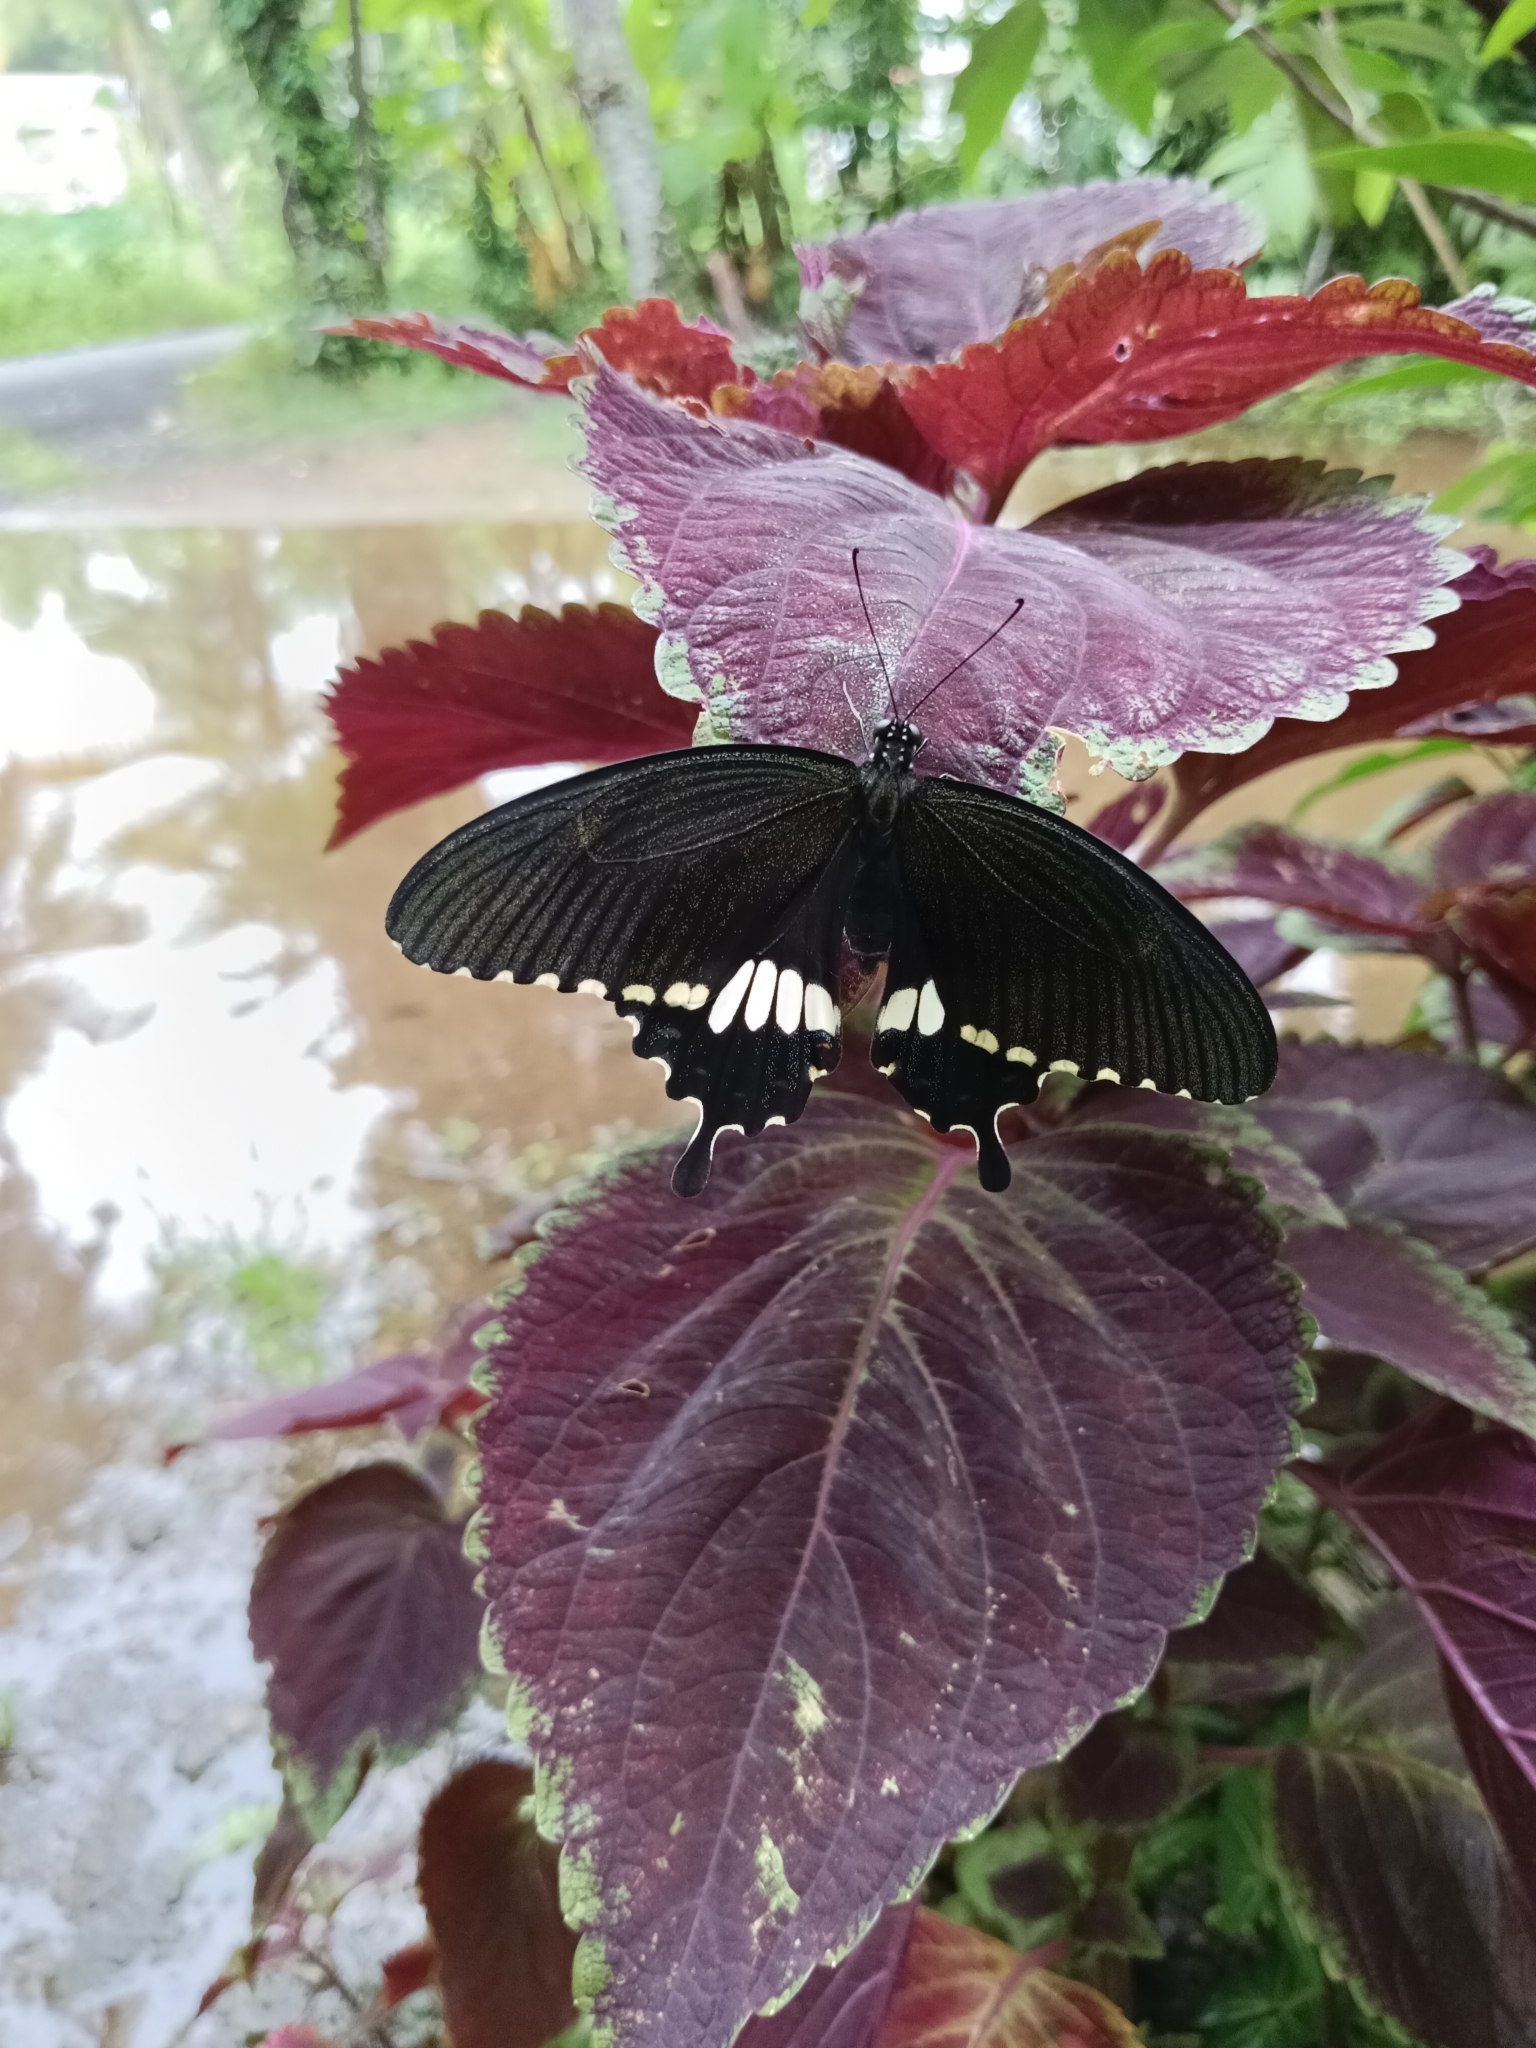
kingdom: Animalia
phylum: Arthropoda
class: Insecta
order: Lepidoptera
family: Papilionidae
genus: Papilio
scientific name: Papilio polytes
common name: Common mormon
